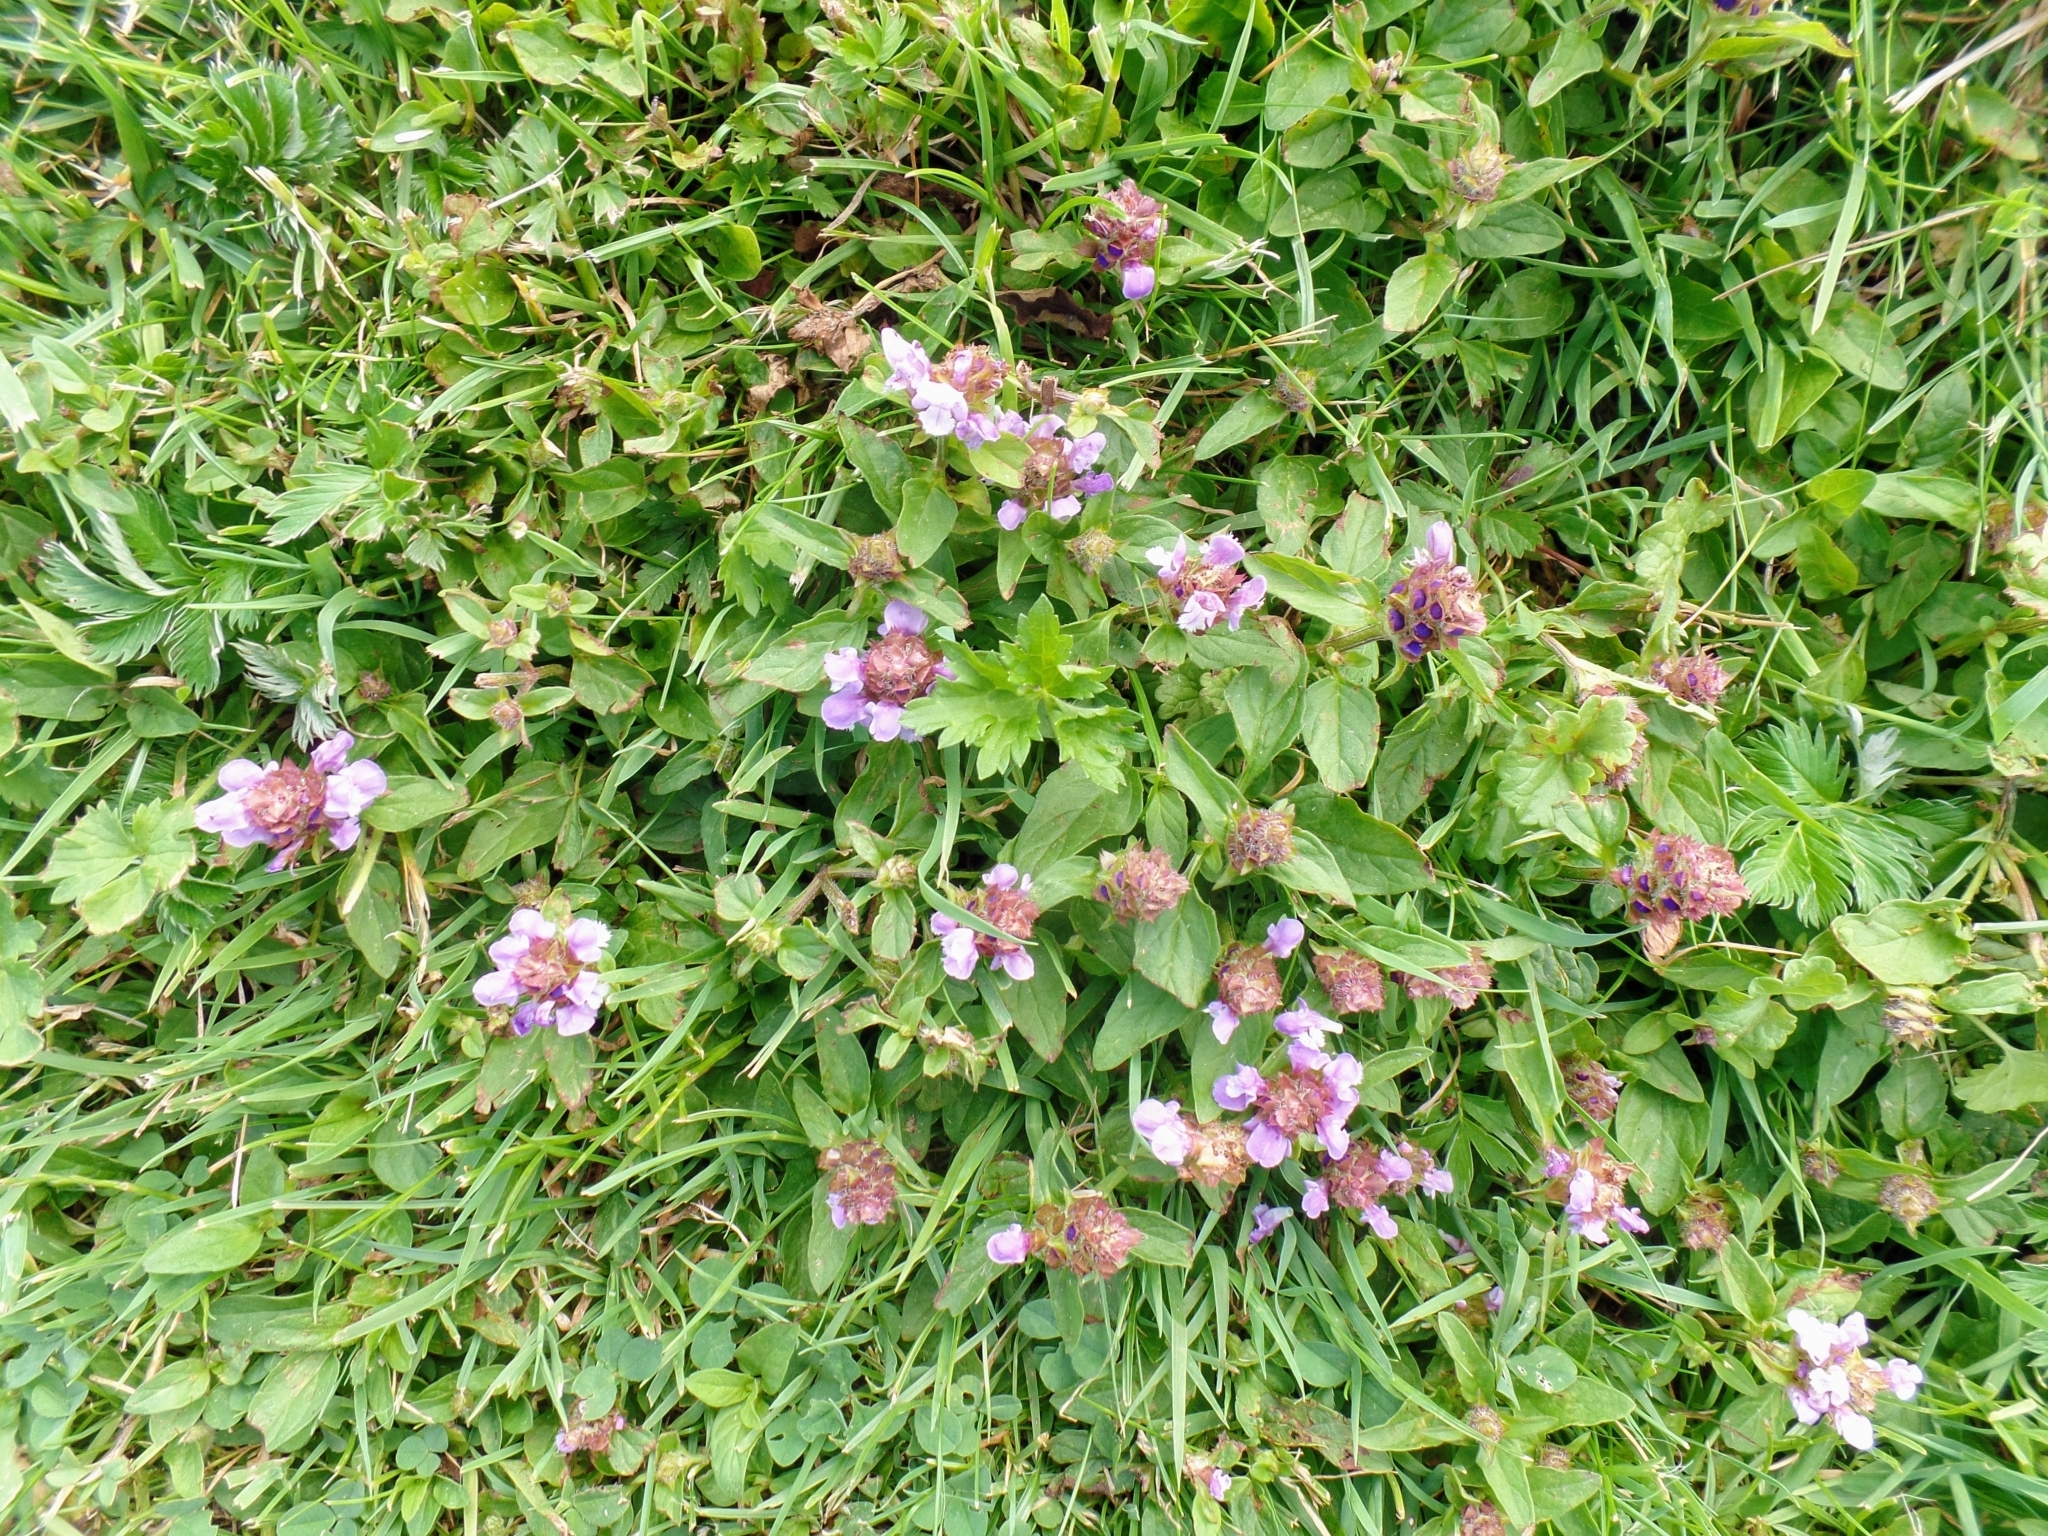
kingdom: Plantae
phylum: Tracheophyta
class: Magnoliopsida
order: Lamiales
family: Lamiaceae
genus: Prunella
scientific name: Prunella vulgaris
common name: Heal-all
